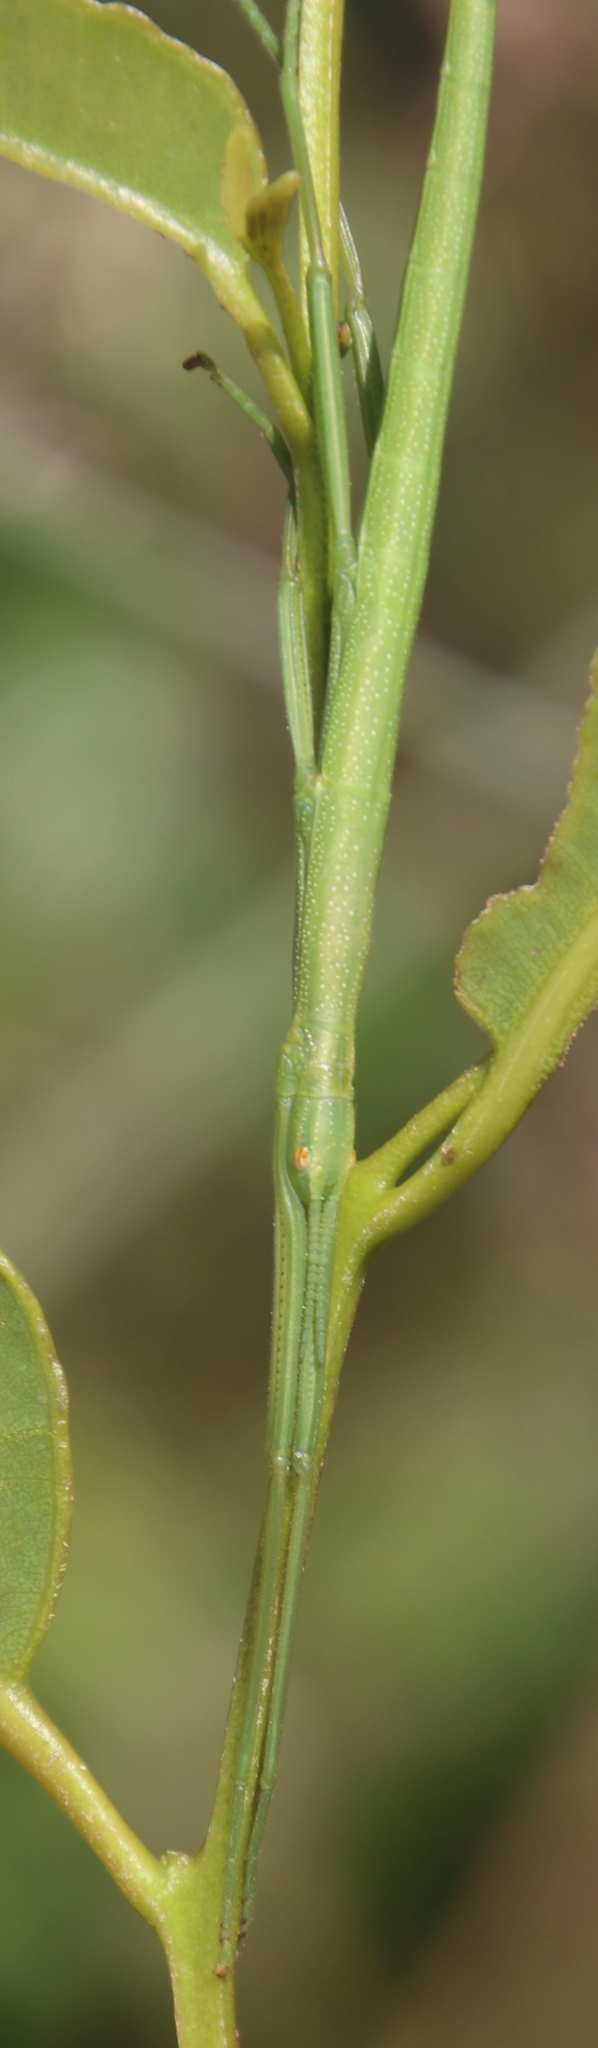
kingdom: Animalia
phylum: Arthropoda
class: Insecta
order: Phasmida
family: Bacillidae
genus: Macynia
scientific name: Macynia labiata
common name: Thunberg's stick insect
